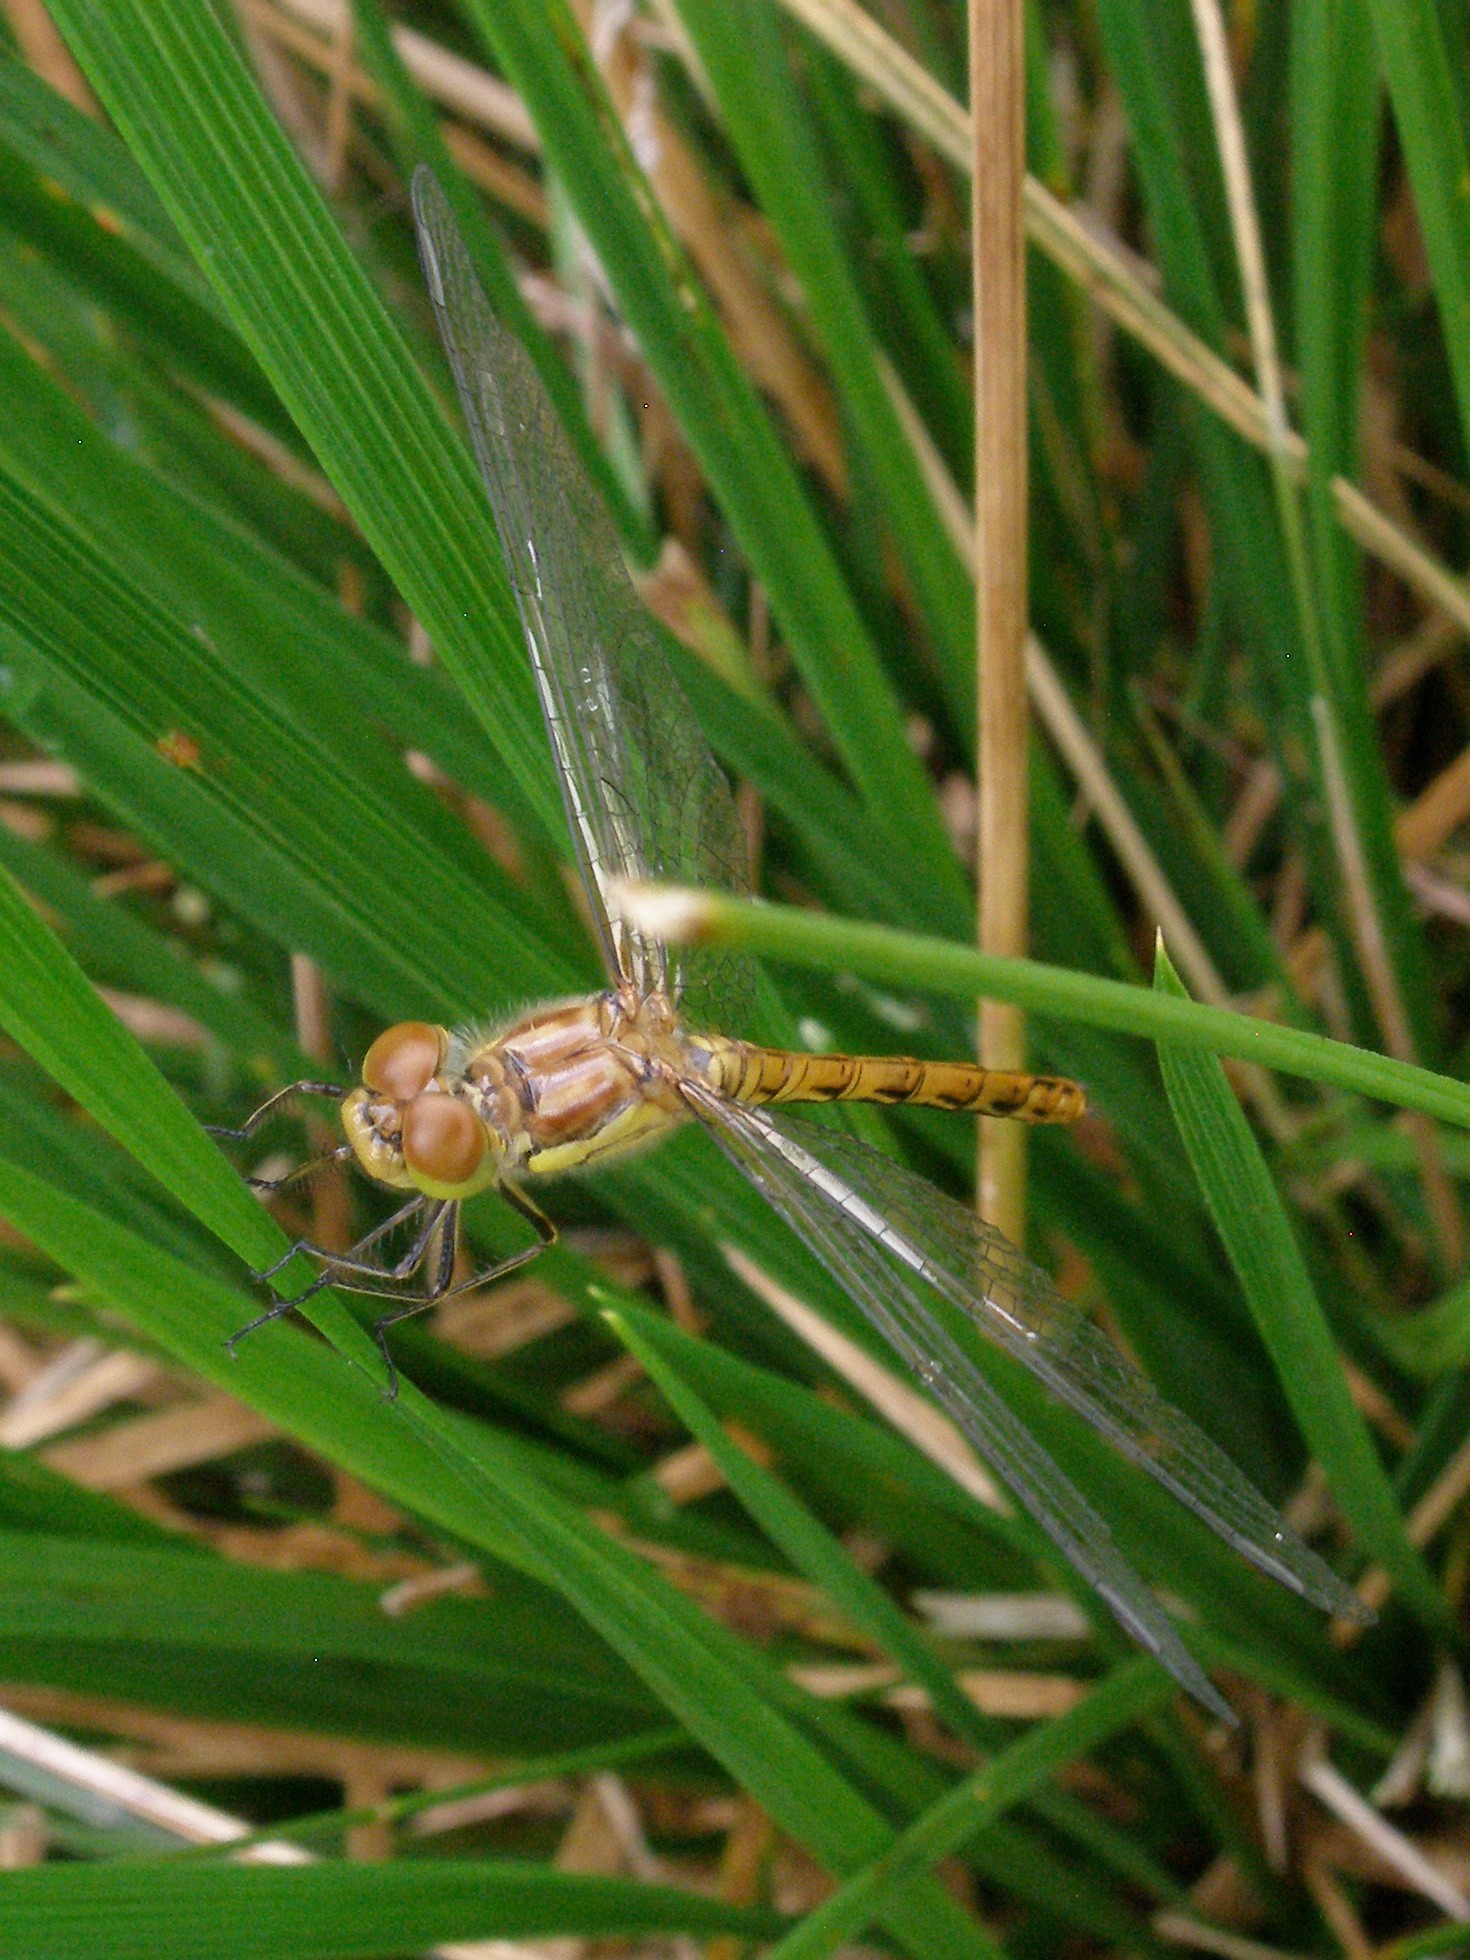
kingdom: Animalia
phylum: Arthropoda
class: Insecta
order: Odonata
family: Libellulidae
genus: Sympetrum
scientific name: Sympetrum striolatum
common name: Common darter
